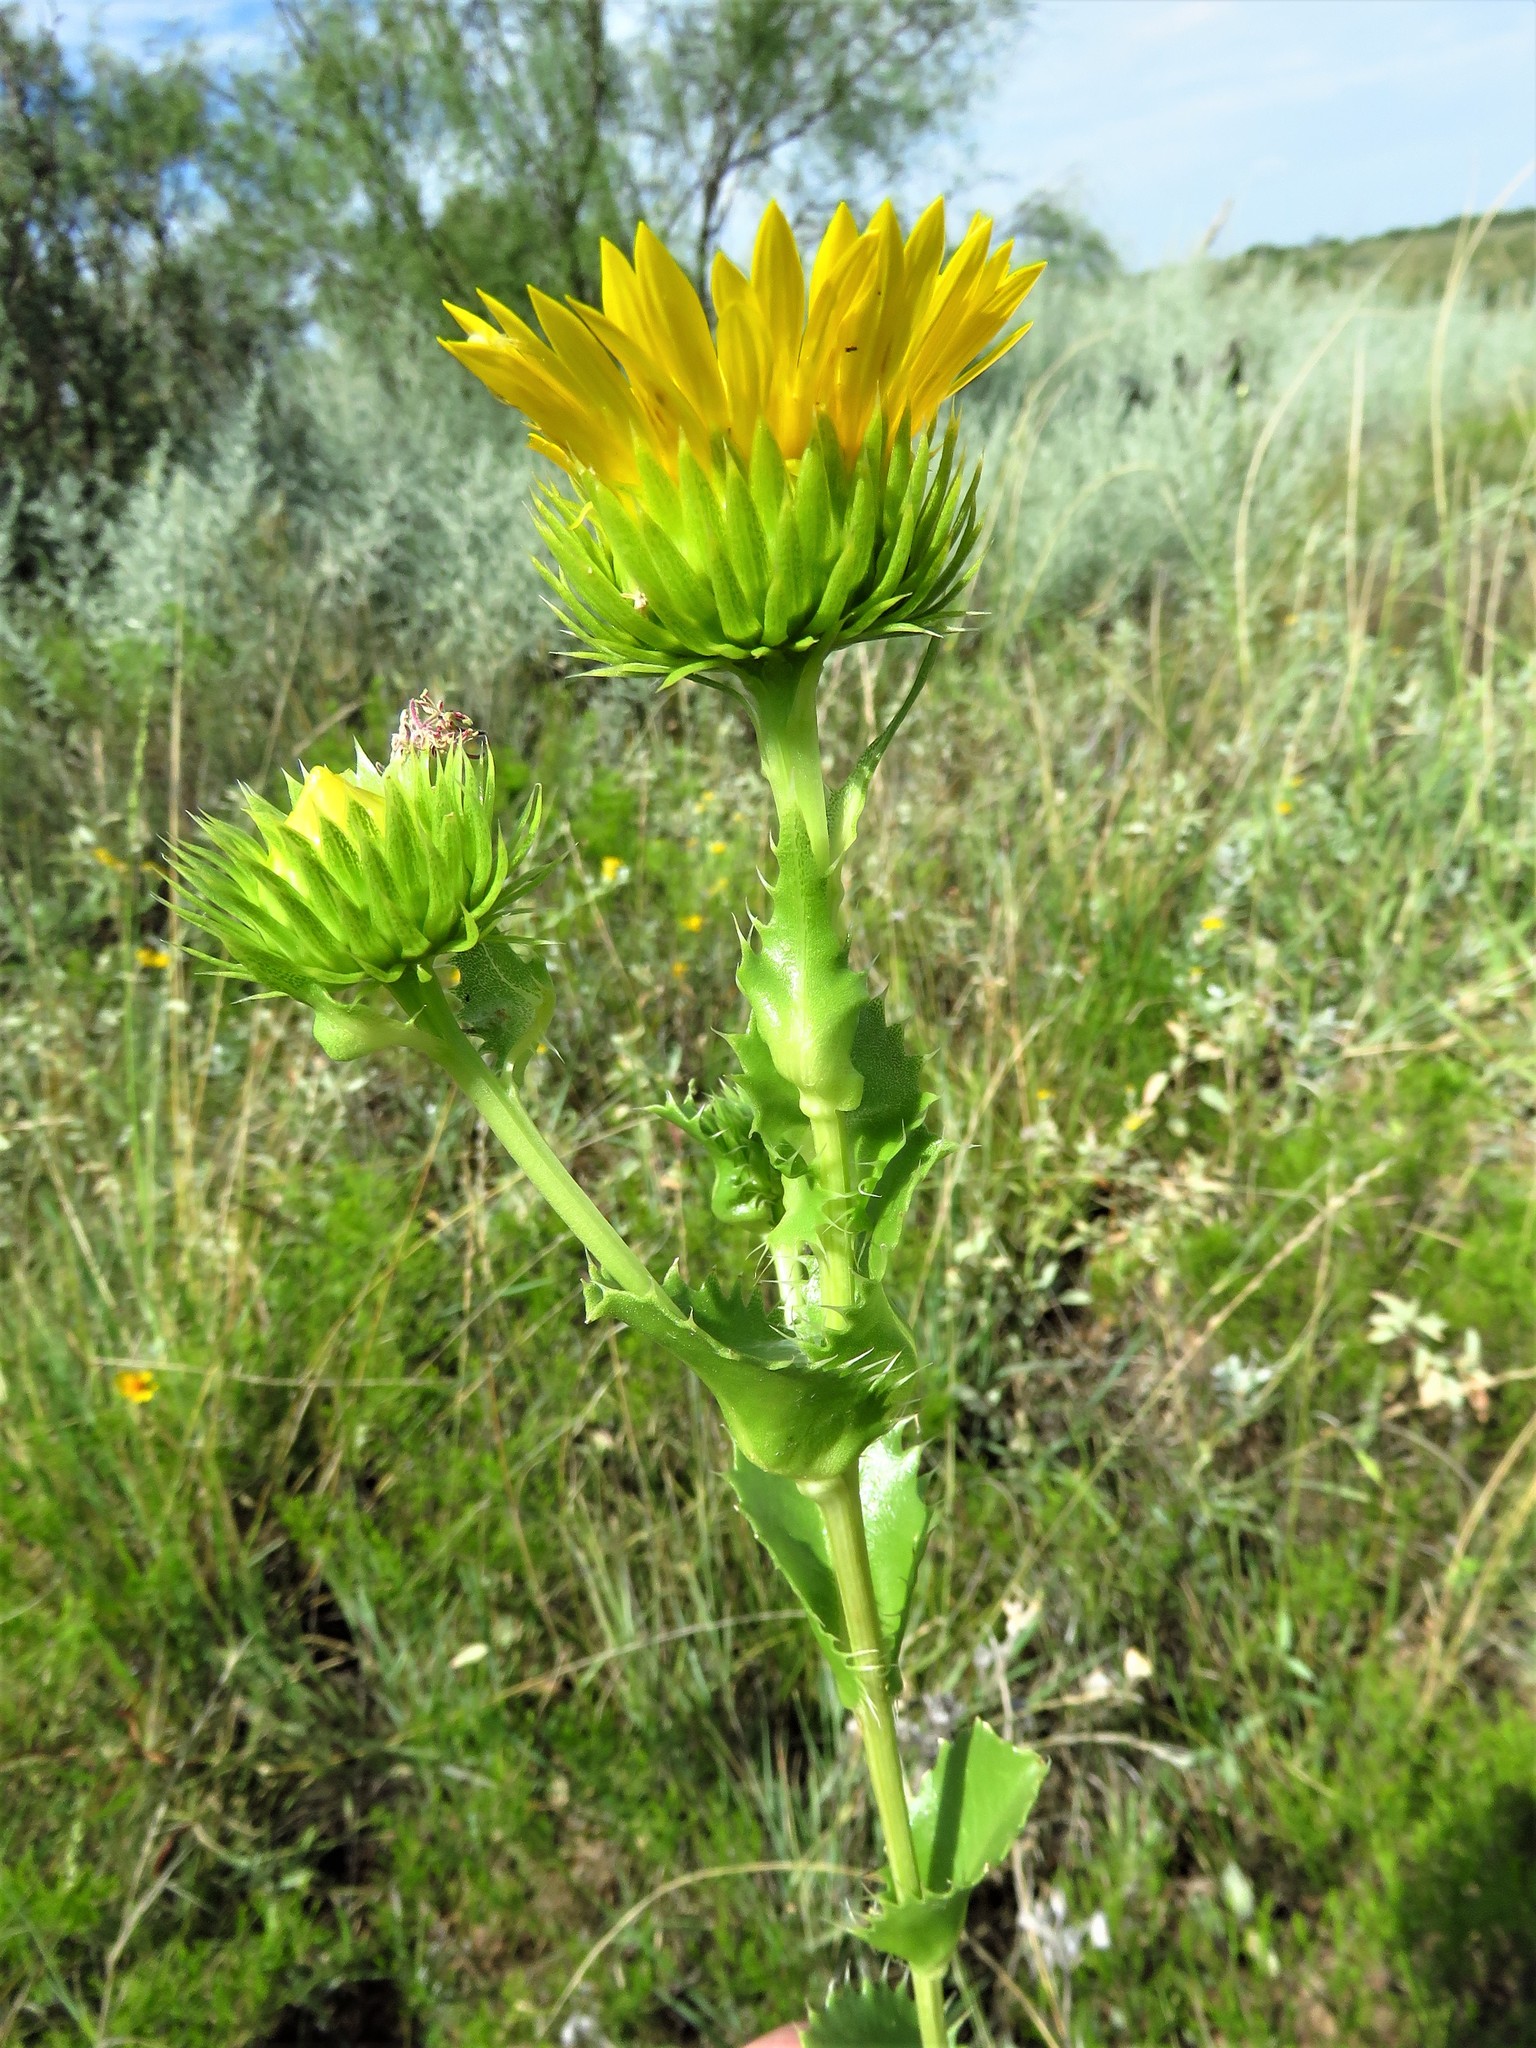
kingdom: Plantae
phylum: Tracheophyta
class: Magnoliopsida
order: Asterales
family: Asteraceae
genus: Grindelia
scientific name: Grindelia ciliata
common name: Goldenweed
